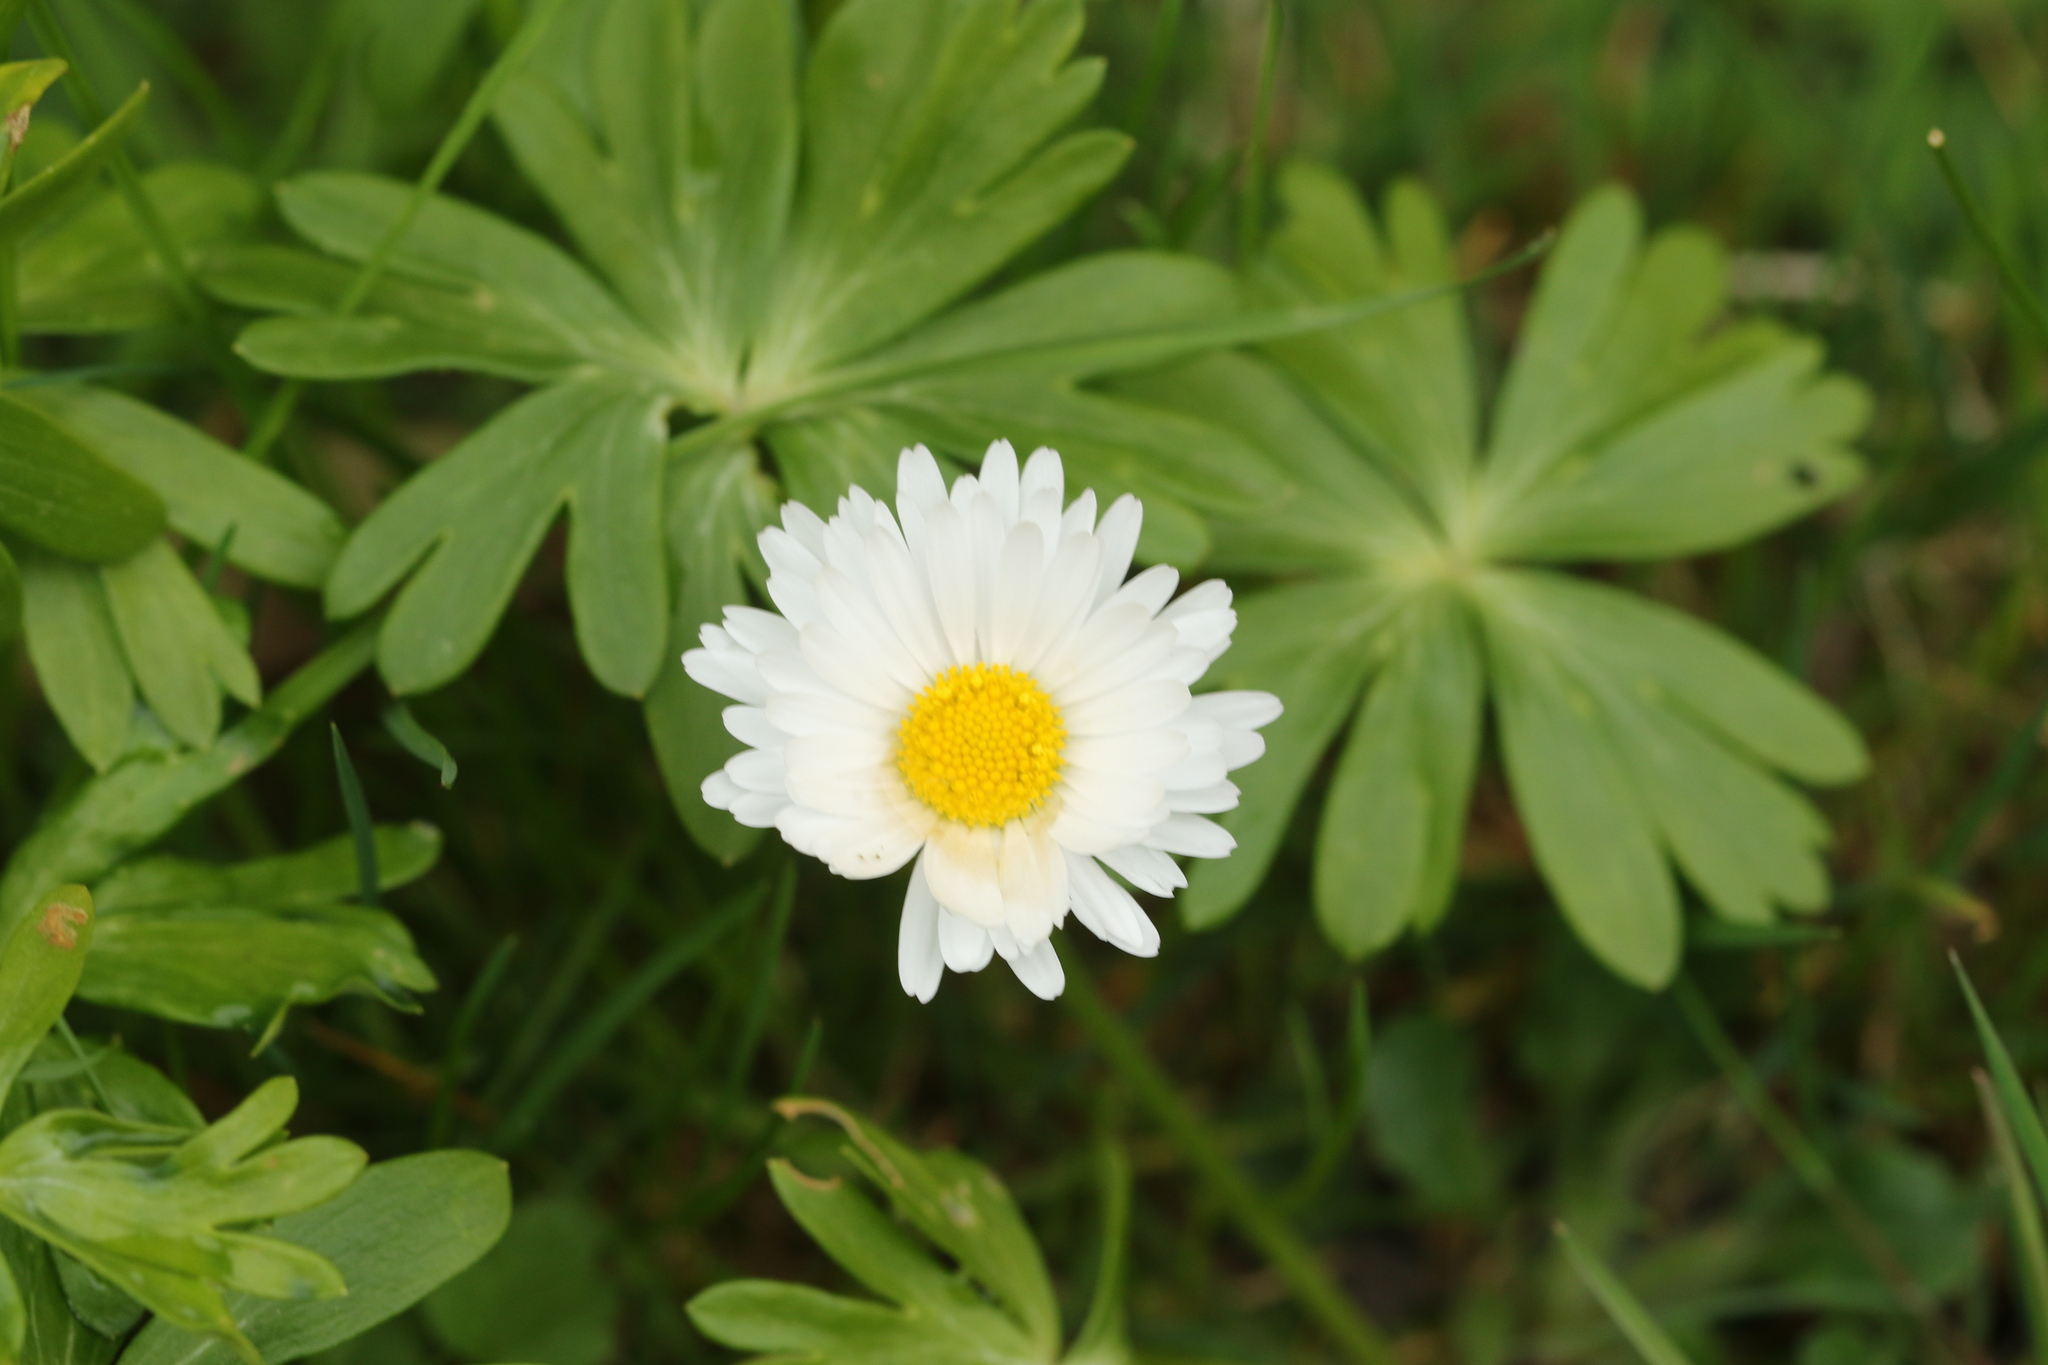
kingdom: Plantae
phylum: Tracheophyta
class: Magnoliopsida
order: Asterales
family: Asteraceae
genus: Bellis
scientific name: Bellis perennis
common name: Lawndaisy
